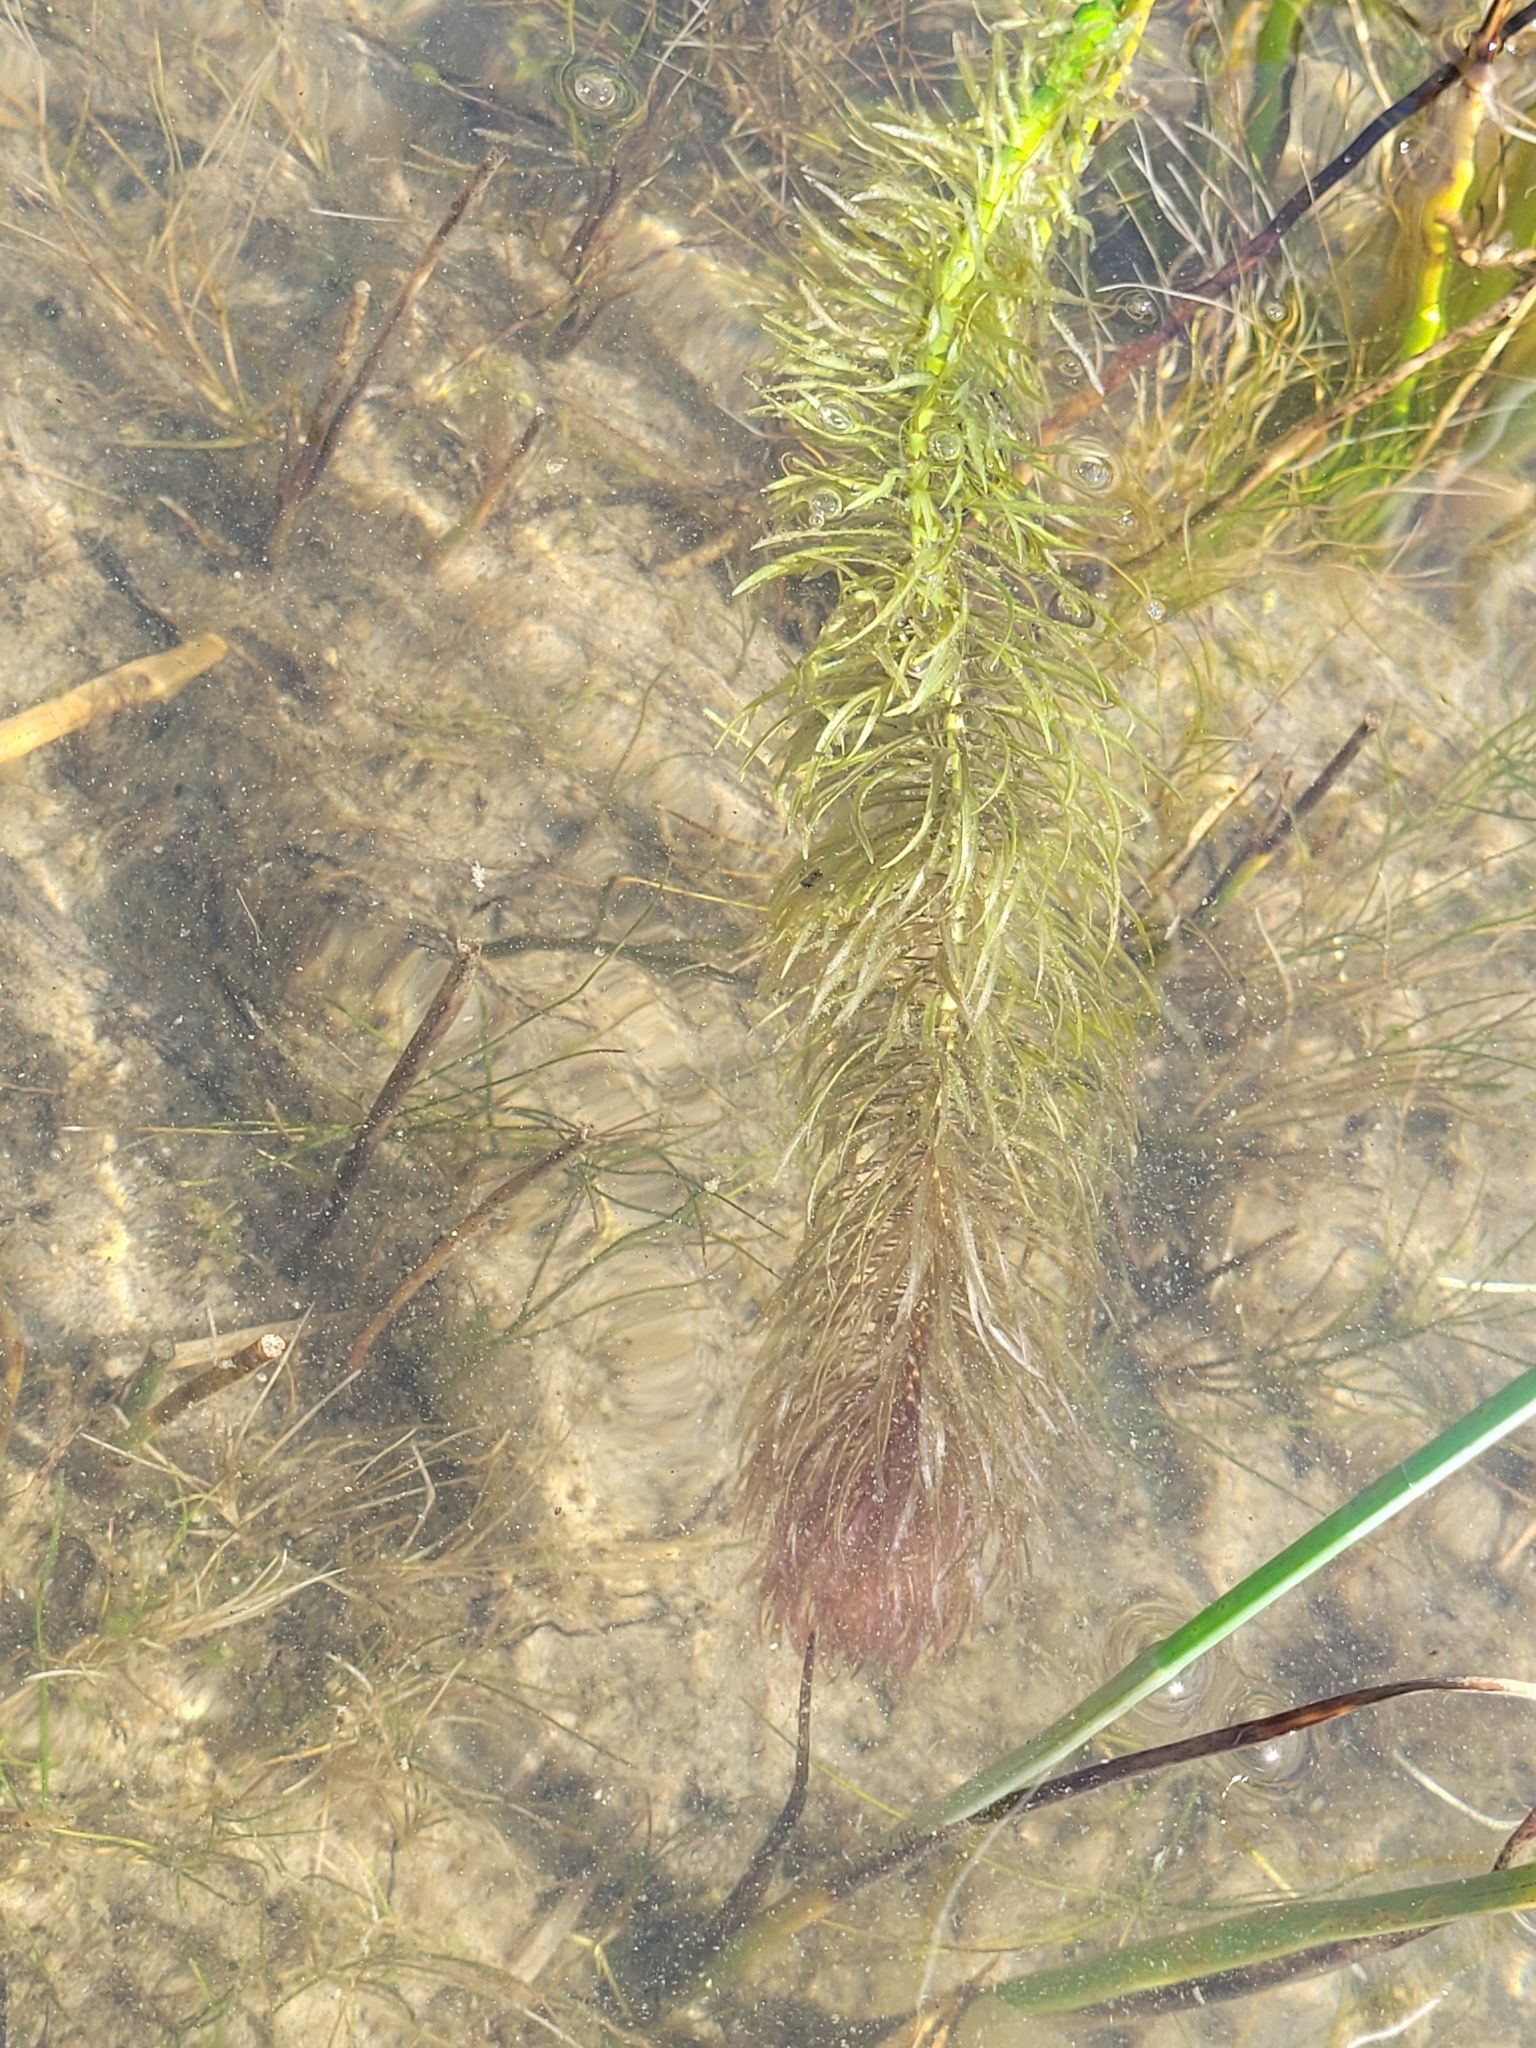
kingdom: Plantae
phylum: Tracheophyta
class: Magnoliopsida
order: Lamiales
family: Plantaginaceae
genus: Hippuris
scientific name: Hippuris vulgaris
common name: Mare's-tail
